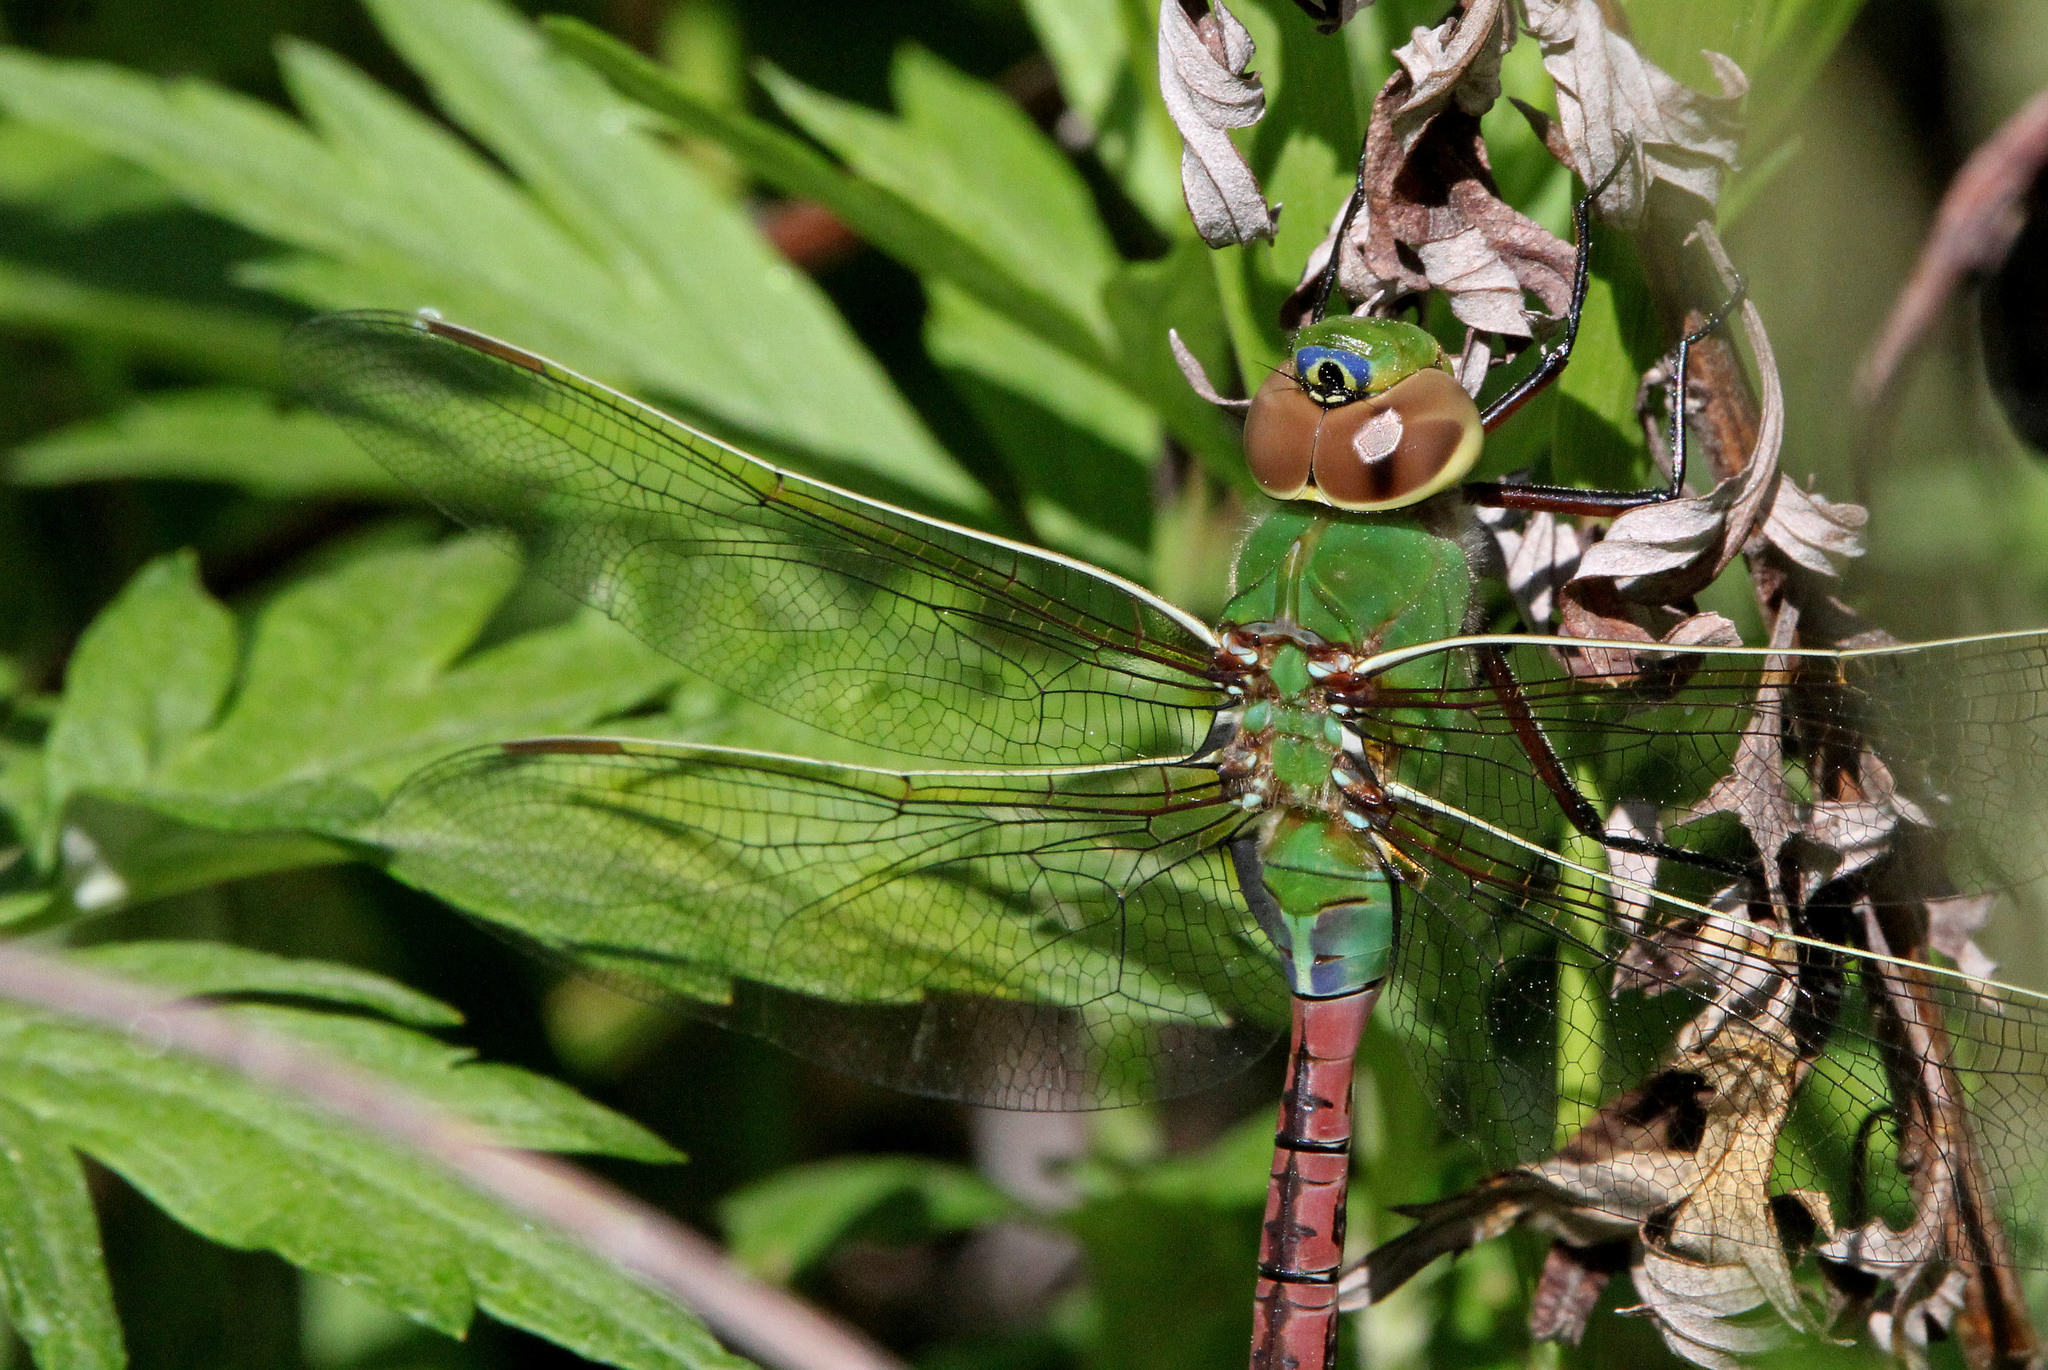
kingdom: Animalia
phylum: Arthropoda
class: Insecta
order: Odonata
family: Aeshnidae
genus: Anax
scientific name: Anax junius
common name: Common green darner
